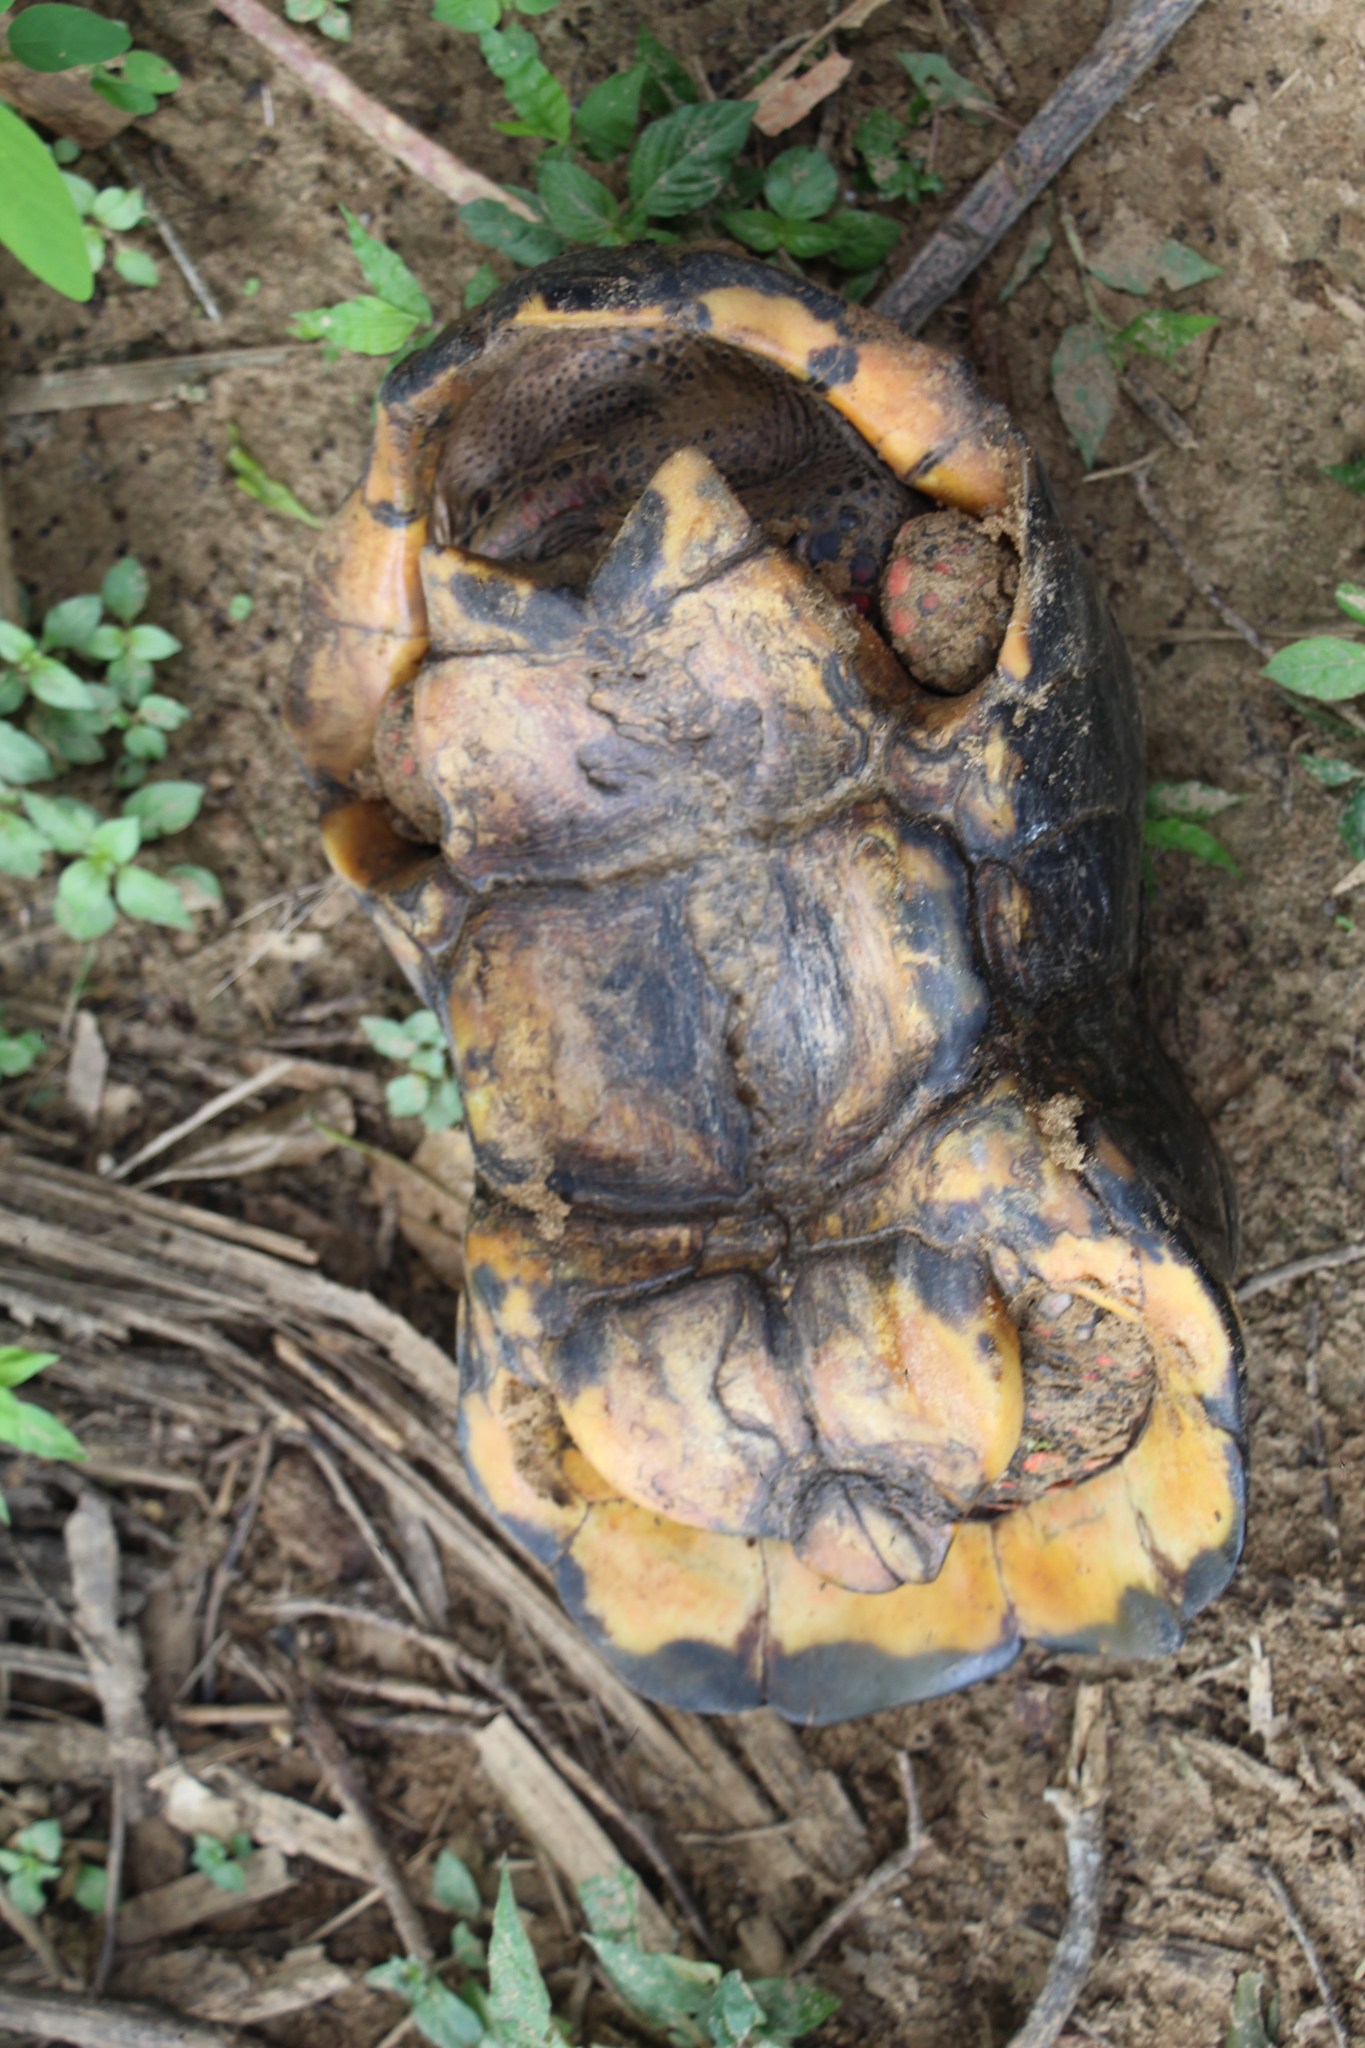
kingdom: Animalia
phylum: Chordata
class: Testudines
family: Testudinidae
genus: Chelonoidis
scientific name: Chelonoidis carbonarius
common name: Red-footed tortoise
